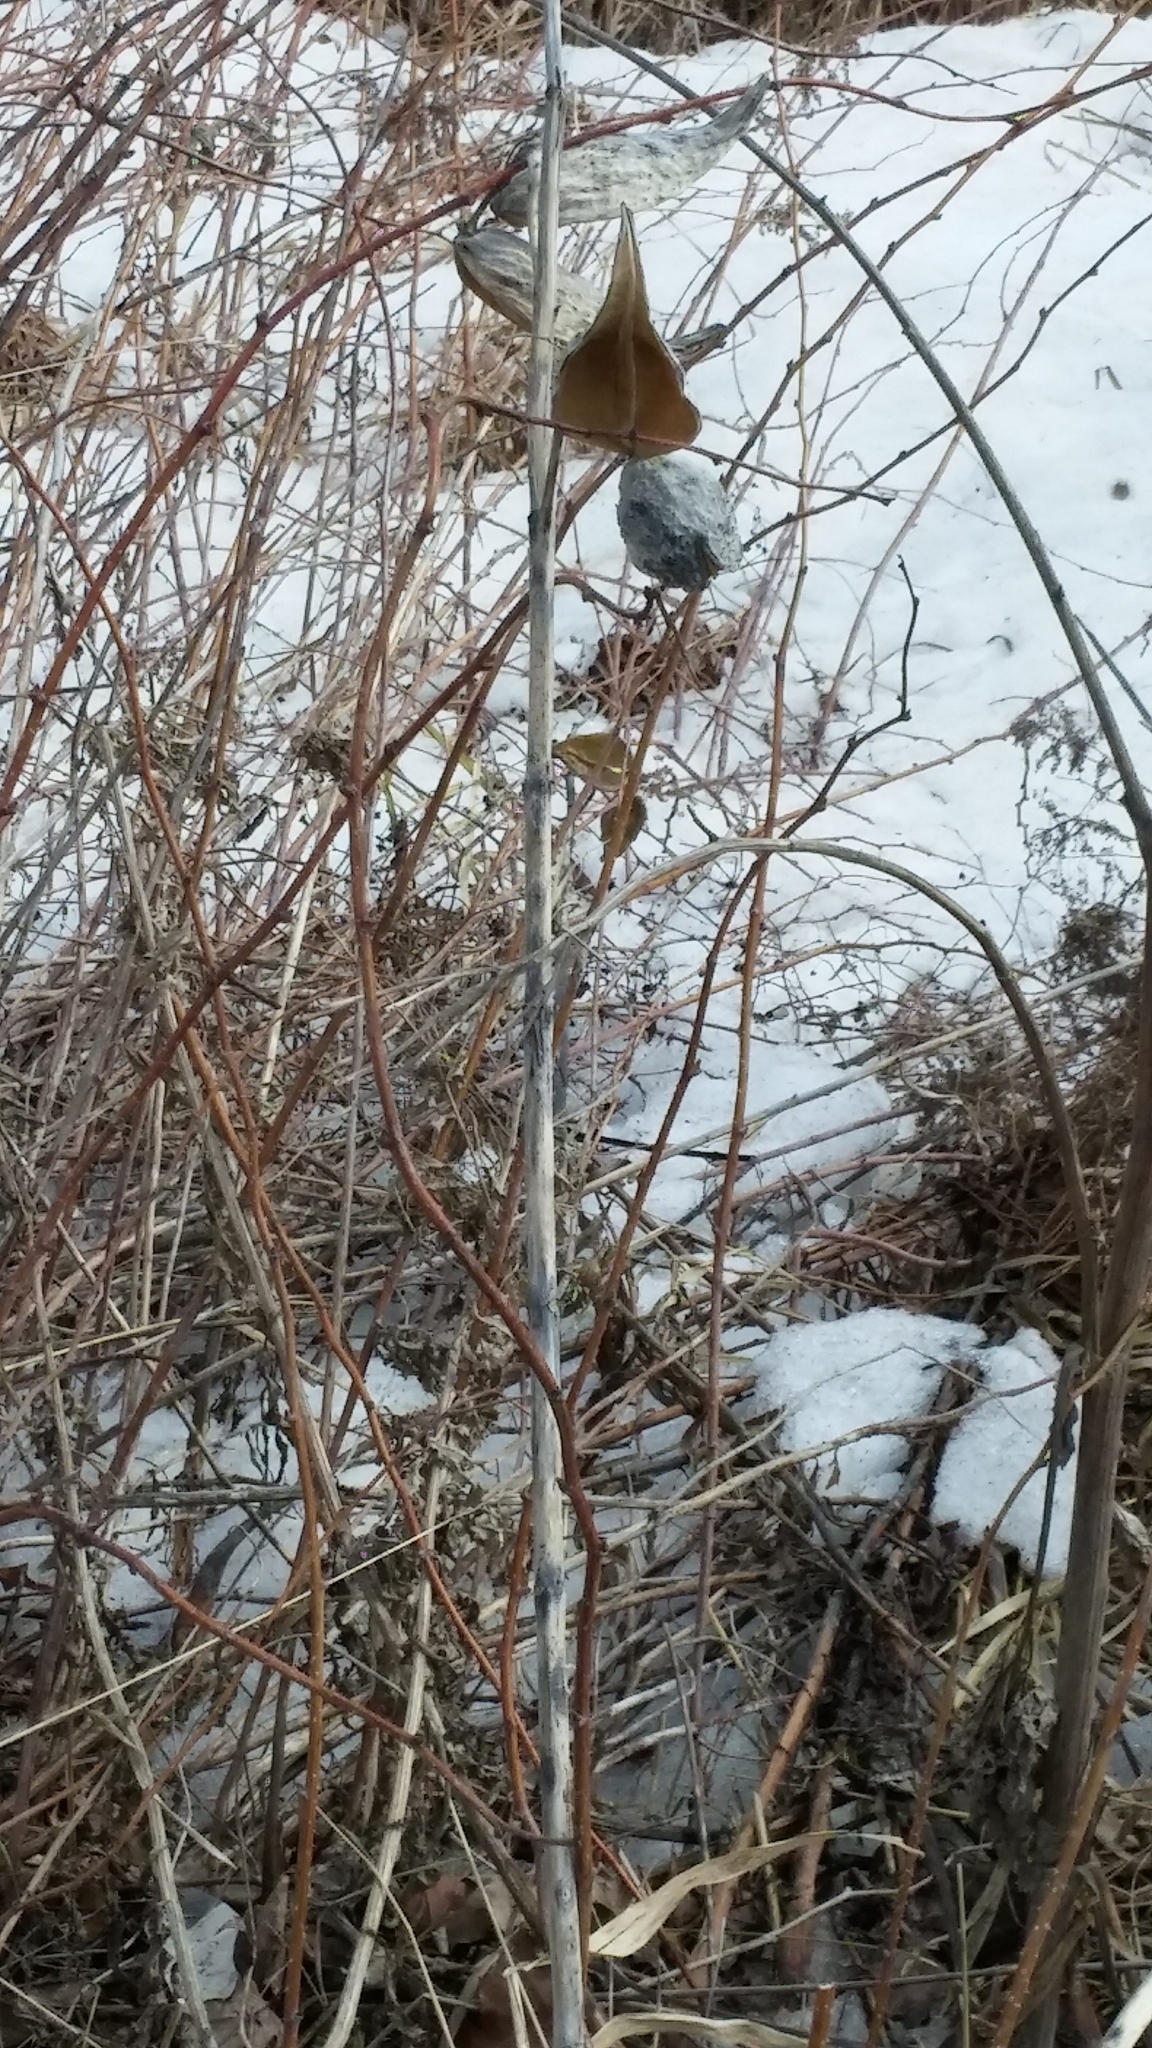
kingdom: Plantae
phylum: Tracheophyta
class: Magnoliopsida
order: Gentianales
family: Apocynaceae
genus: Asclepias
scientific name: Asclepias syriaca
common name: Common milkweed
